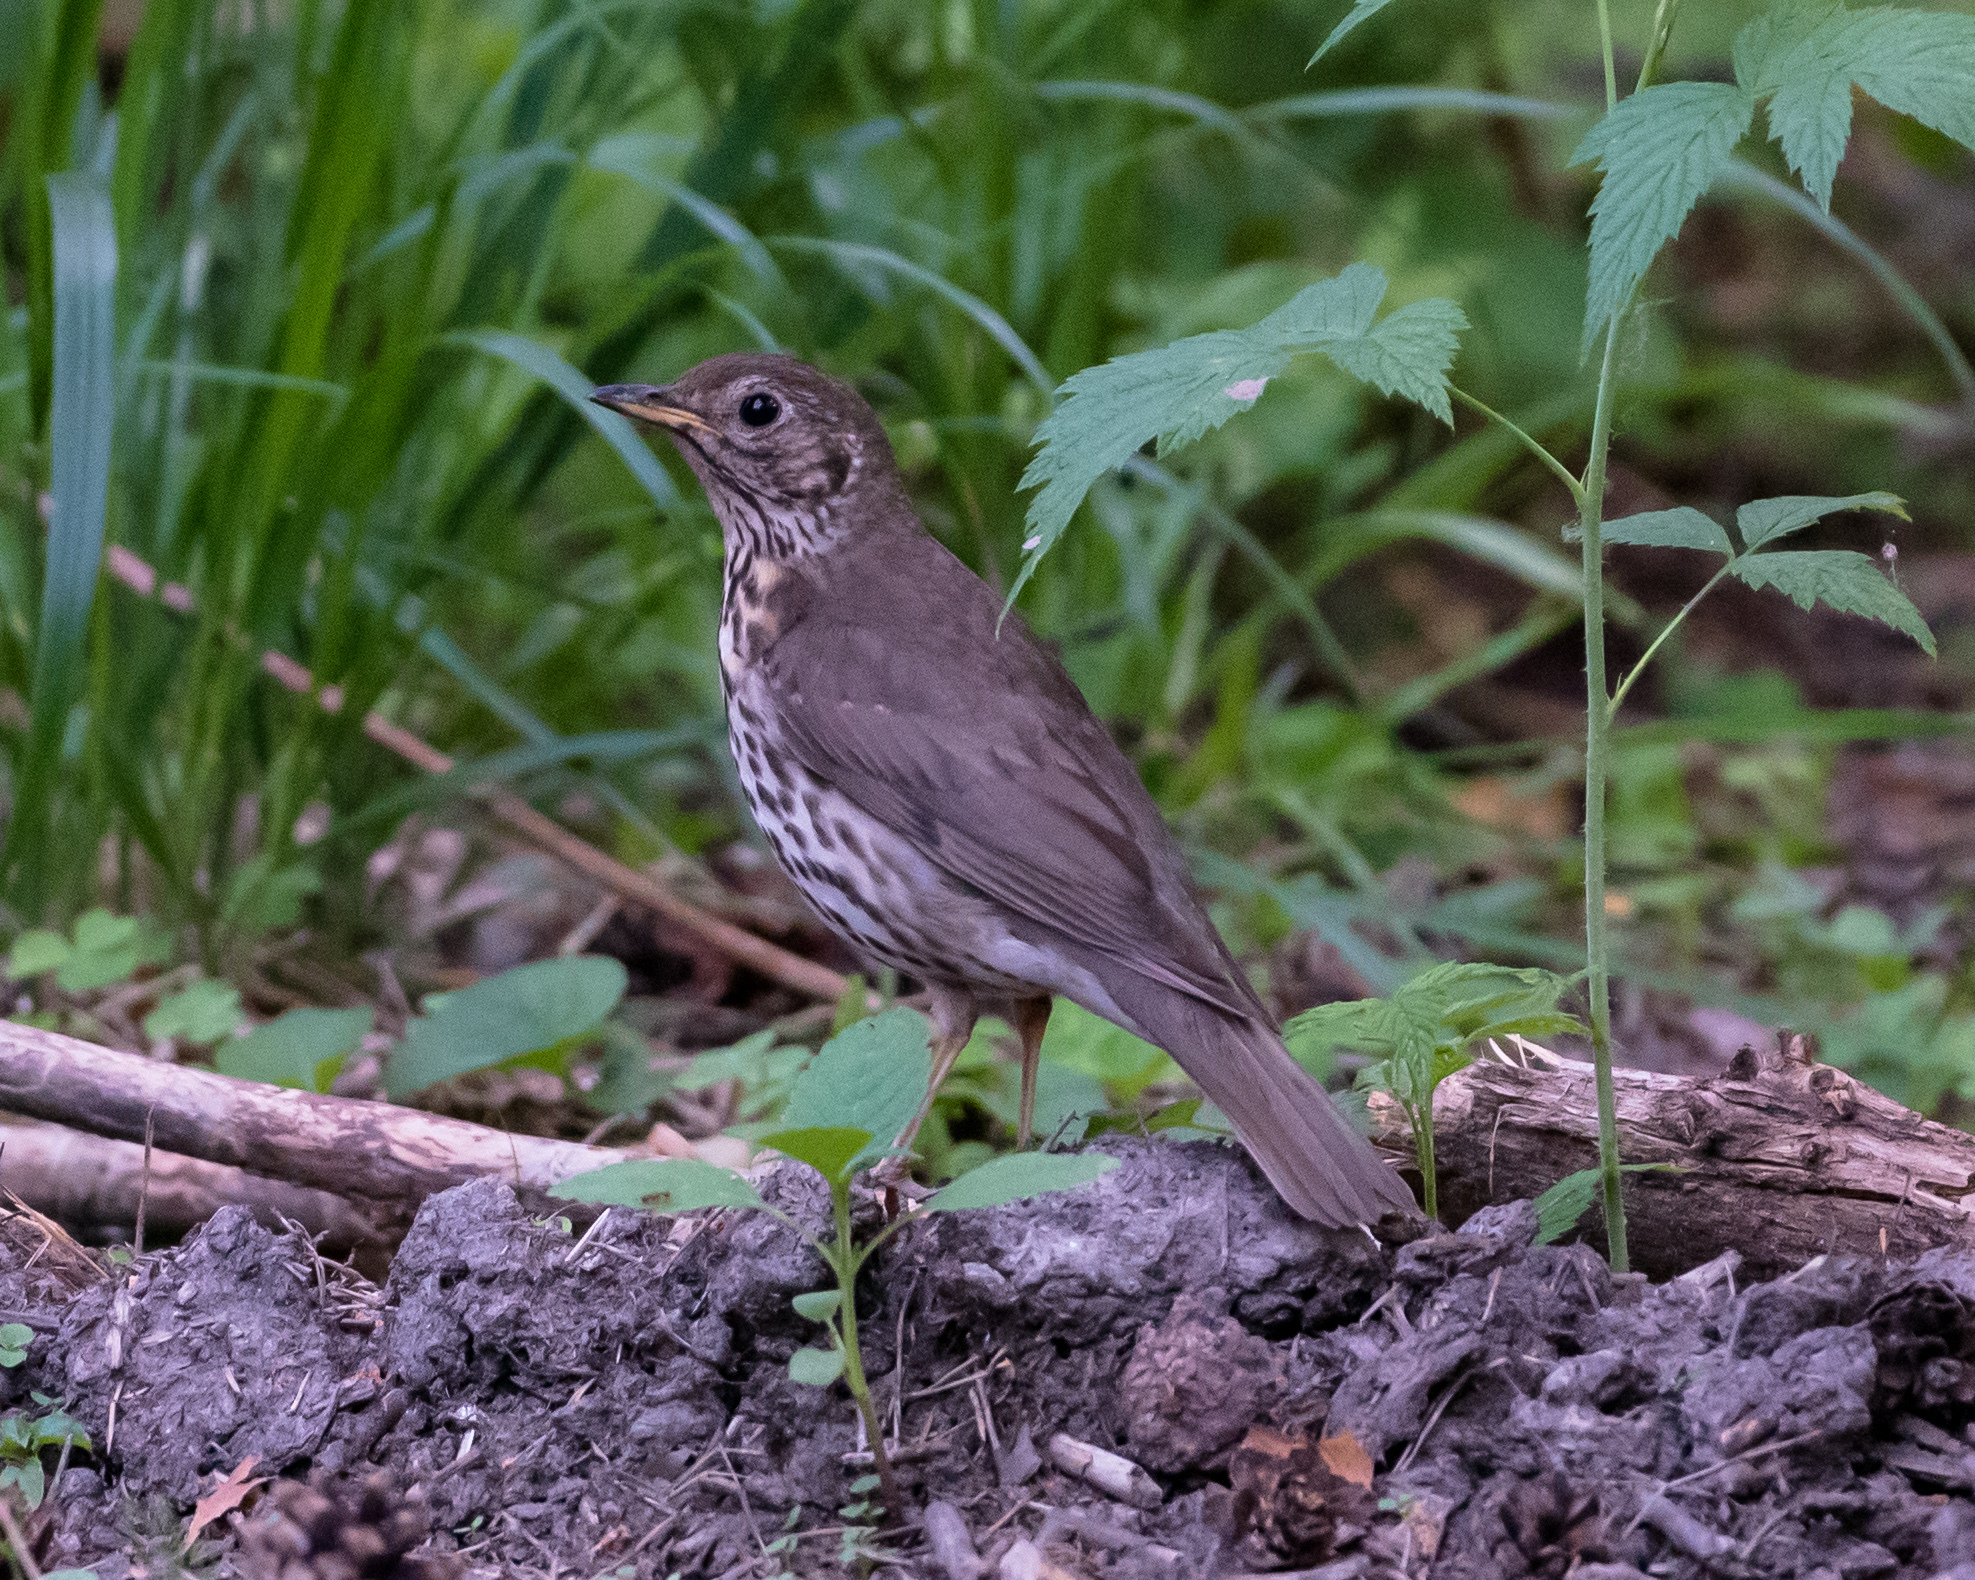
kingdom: Animalia
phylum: Chordata
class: Aves
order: Passeriformes
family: Turdidae
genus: Turdus
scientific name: Turdus philomelos
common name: Song thrush
